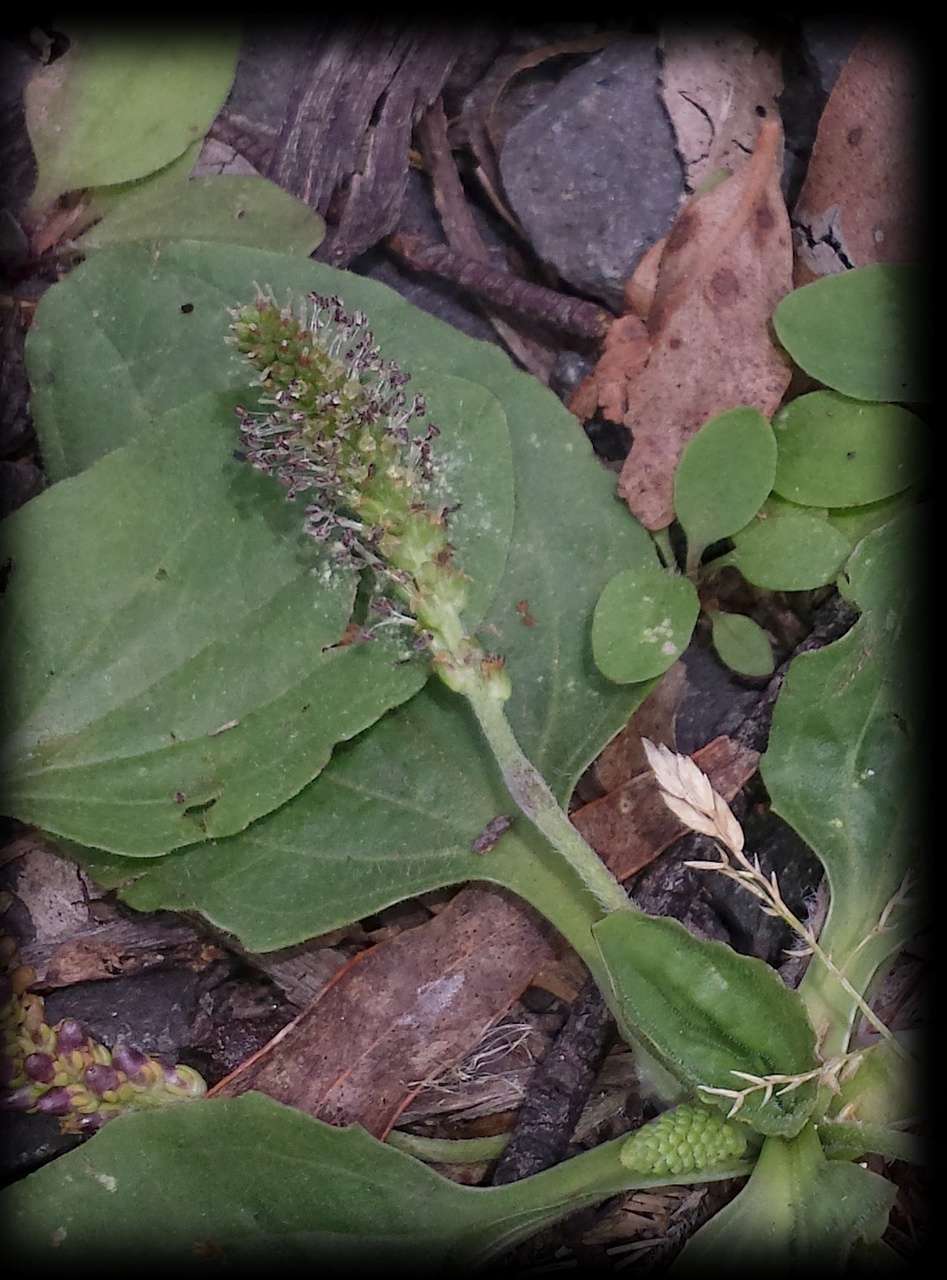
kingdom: Plantae
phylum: Tracheophyta
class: Magnoliopsida
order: Lamiales
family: Plantaginaceae
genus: Plantago
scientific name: Plantago major
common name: Common plantain
